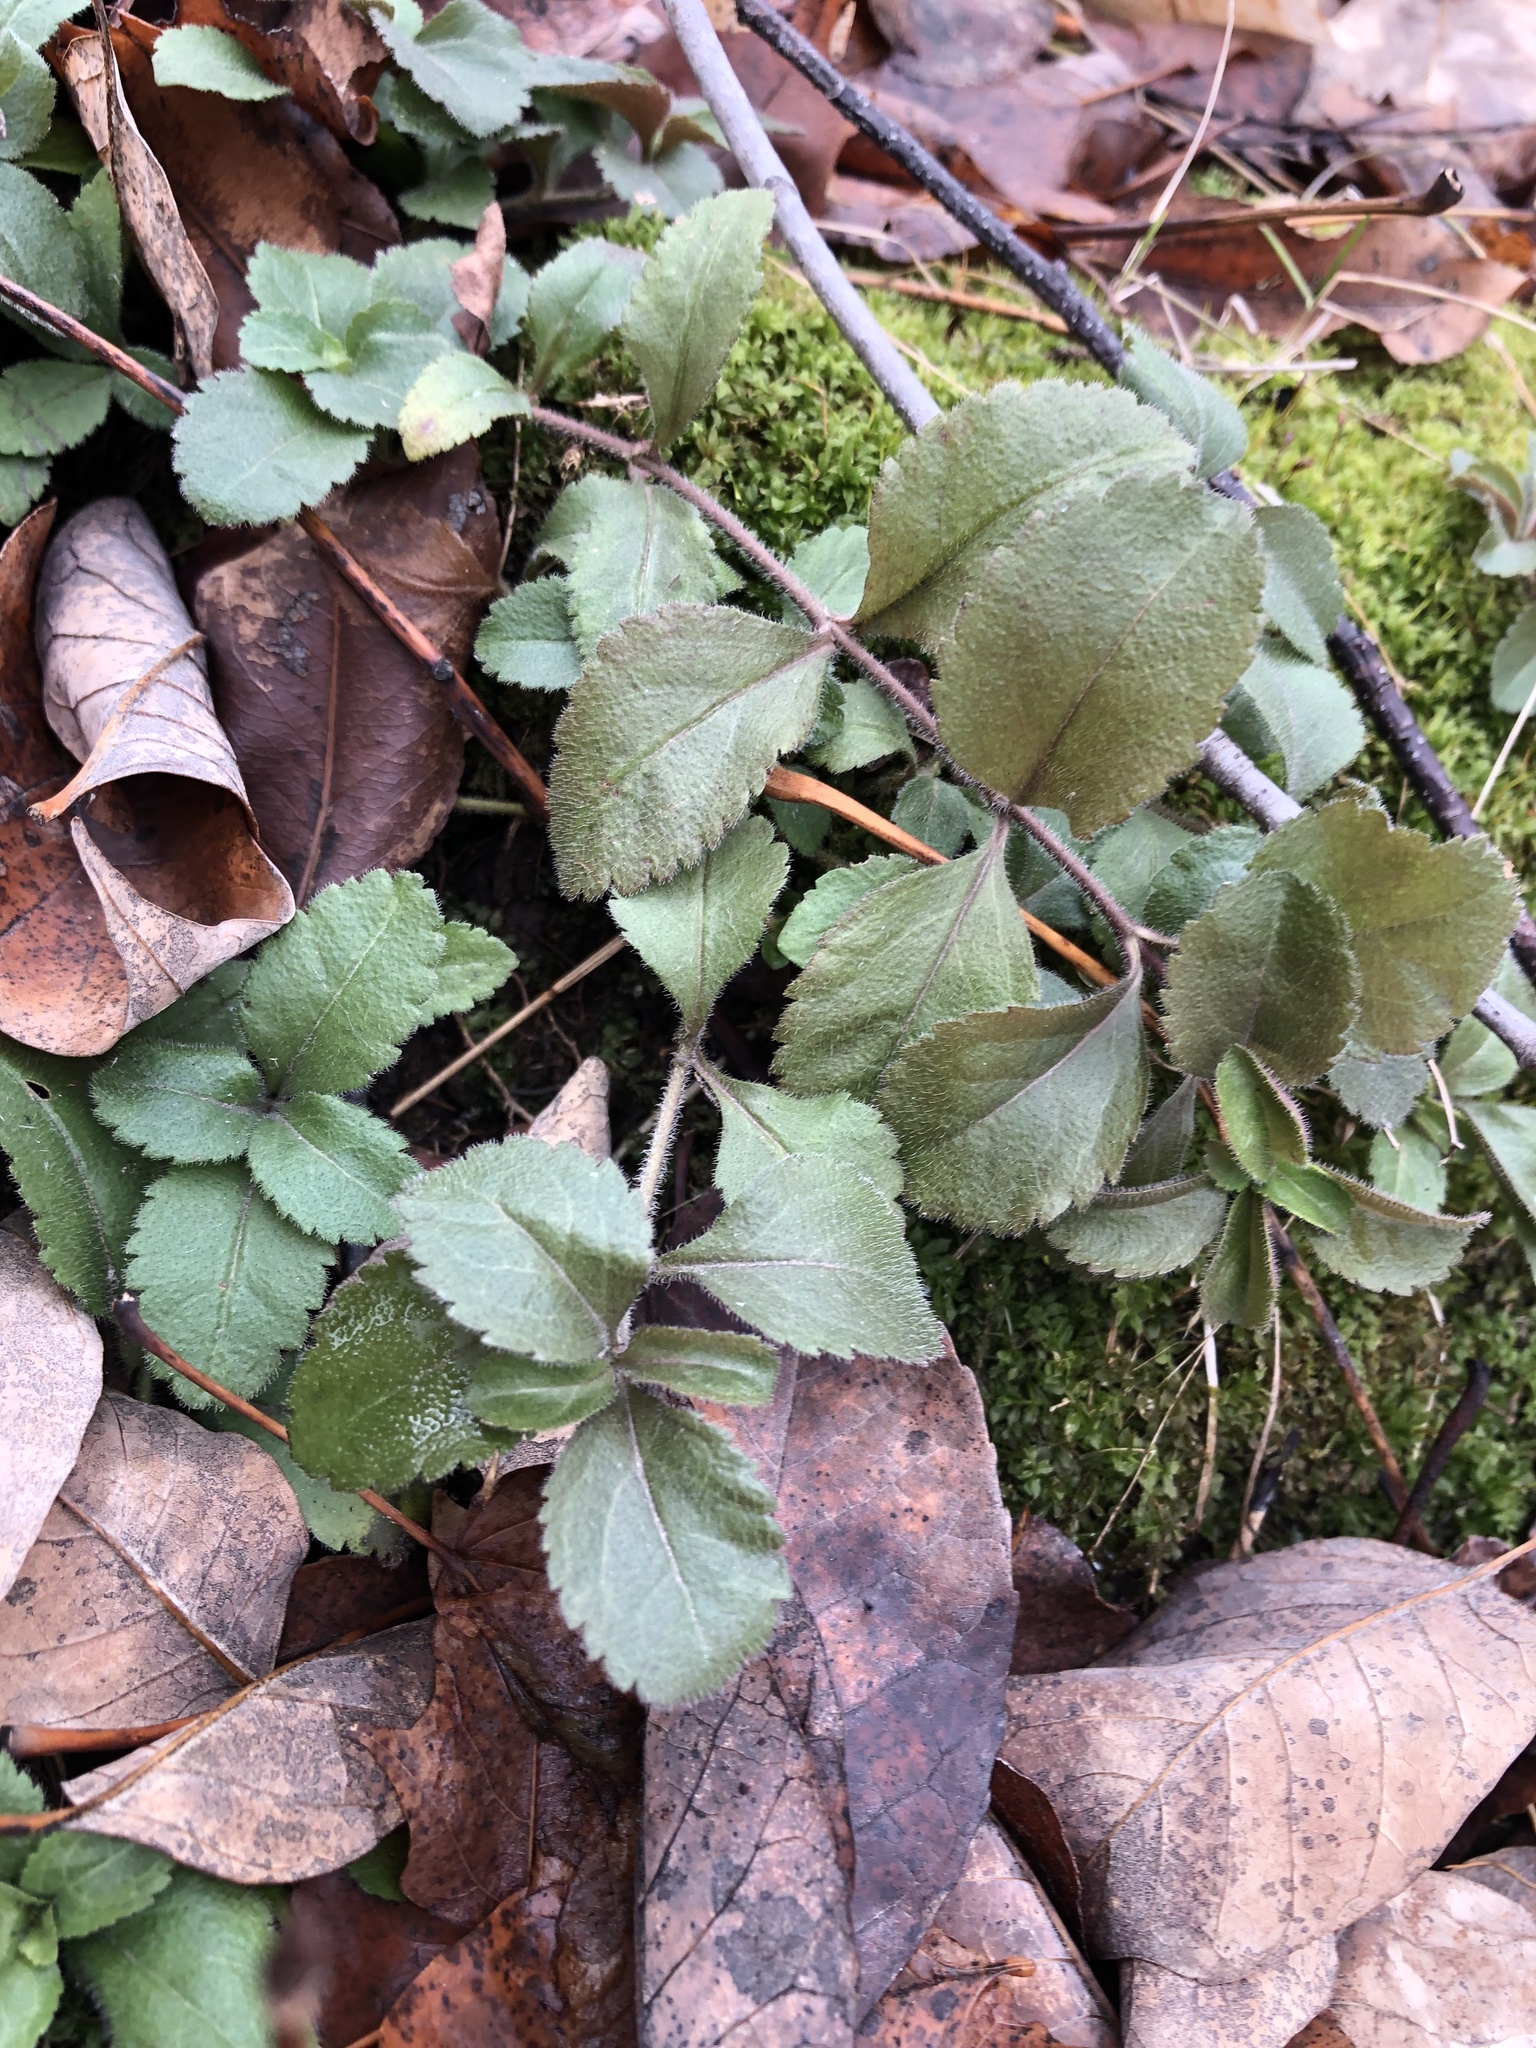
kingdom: Plantae
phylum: Tracheophyta
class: Magnoliopsida
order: Lamiales
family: Plantaginaceae
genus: Veronica
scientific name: Veronica officinalis
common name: Common speedwell
